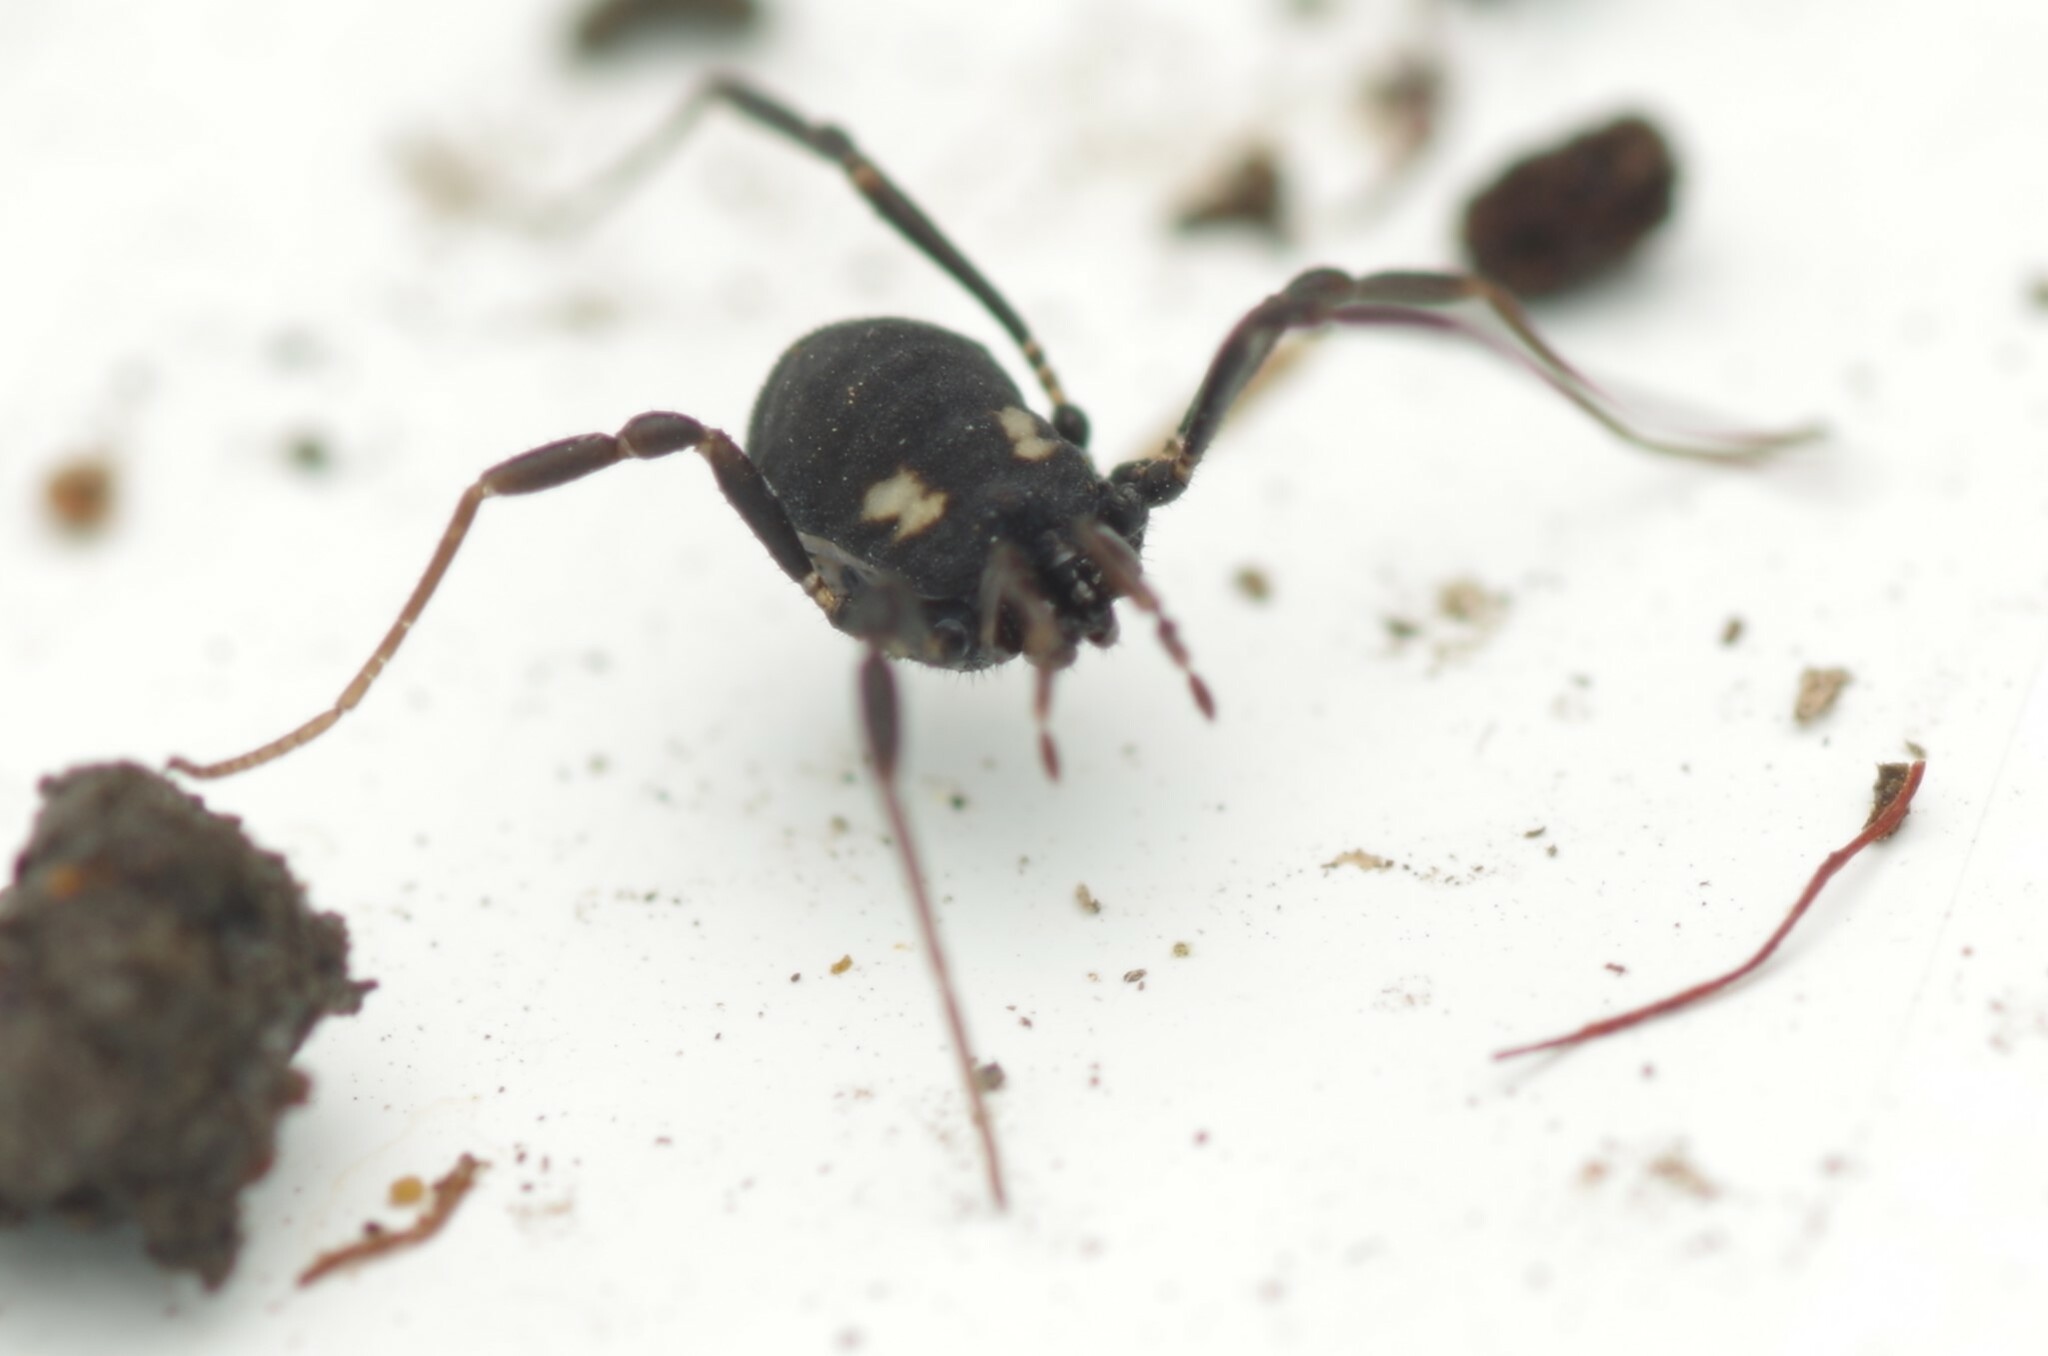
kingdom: Animalia
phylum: Arthropoda
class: Arachnida
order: Opiliones
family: Nemastomatidae
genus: Nemastoma
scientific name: Nemastoma bimaculatum
